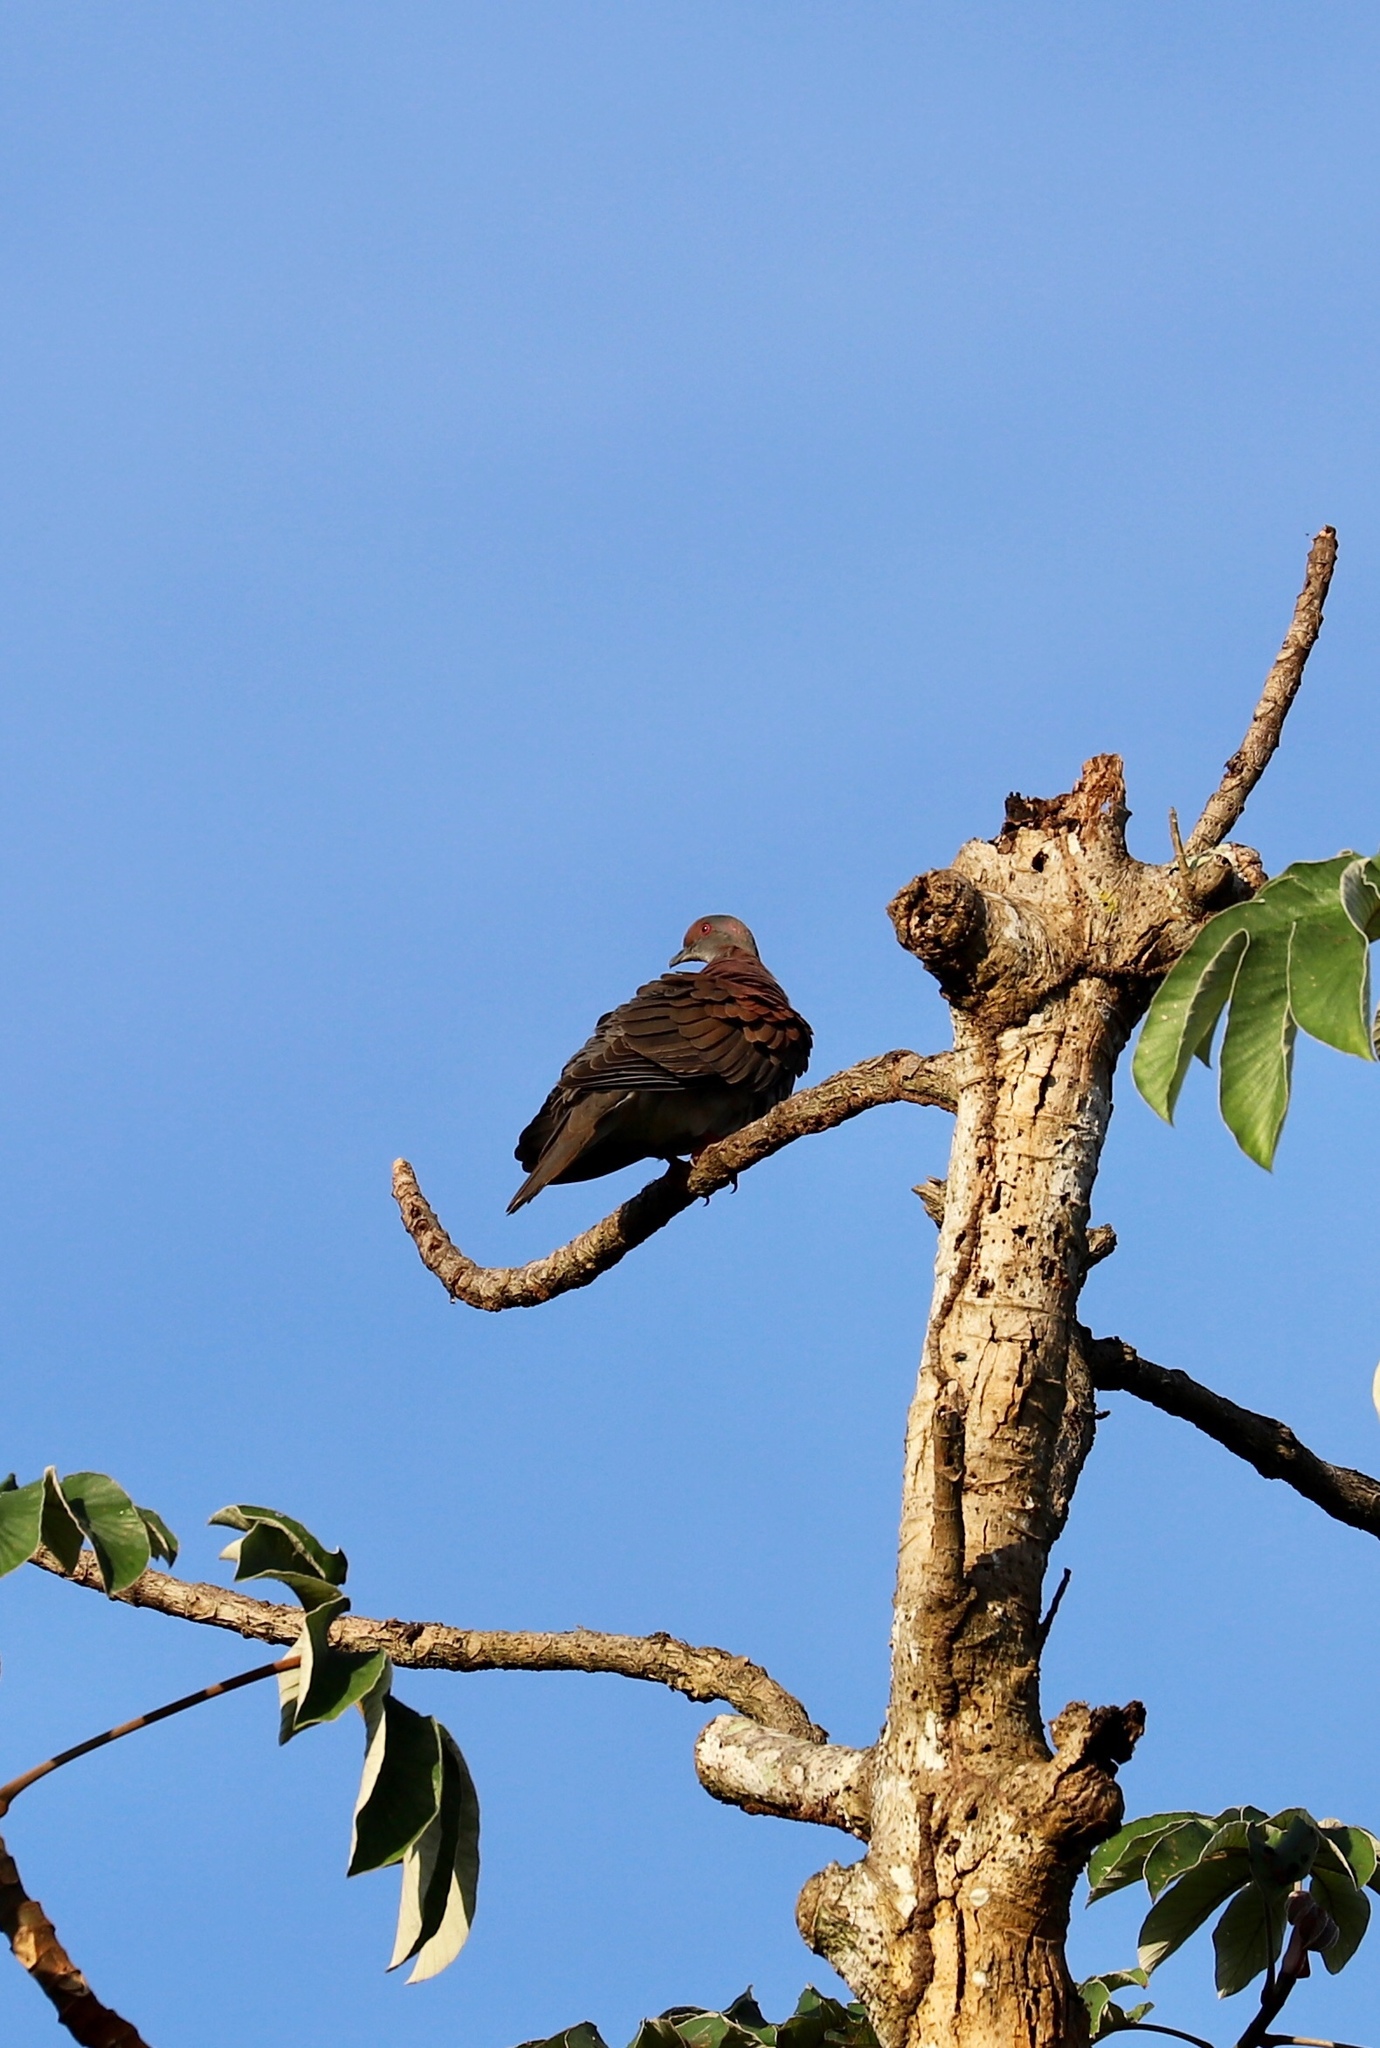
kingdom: Animalia
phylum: Chordata
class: Aves
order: Columbiformes
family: Columbidae
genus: Patagioenas
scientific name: Patagioenas cayennensis
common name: Pale-vented pigeon
